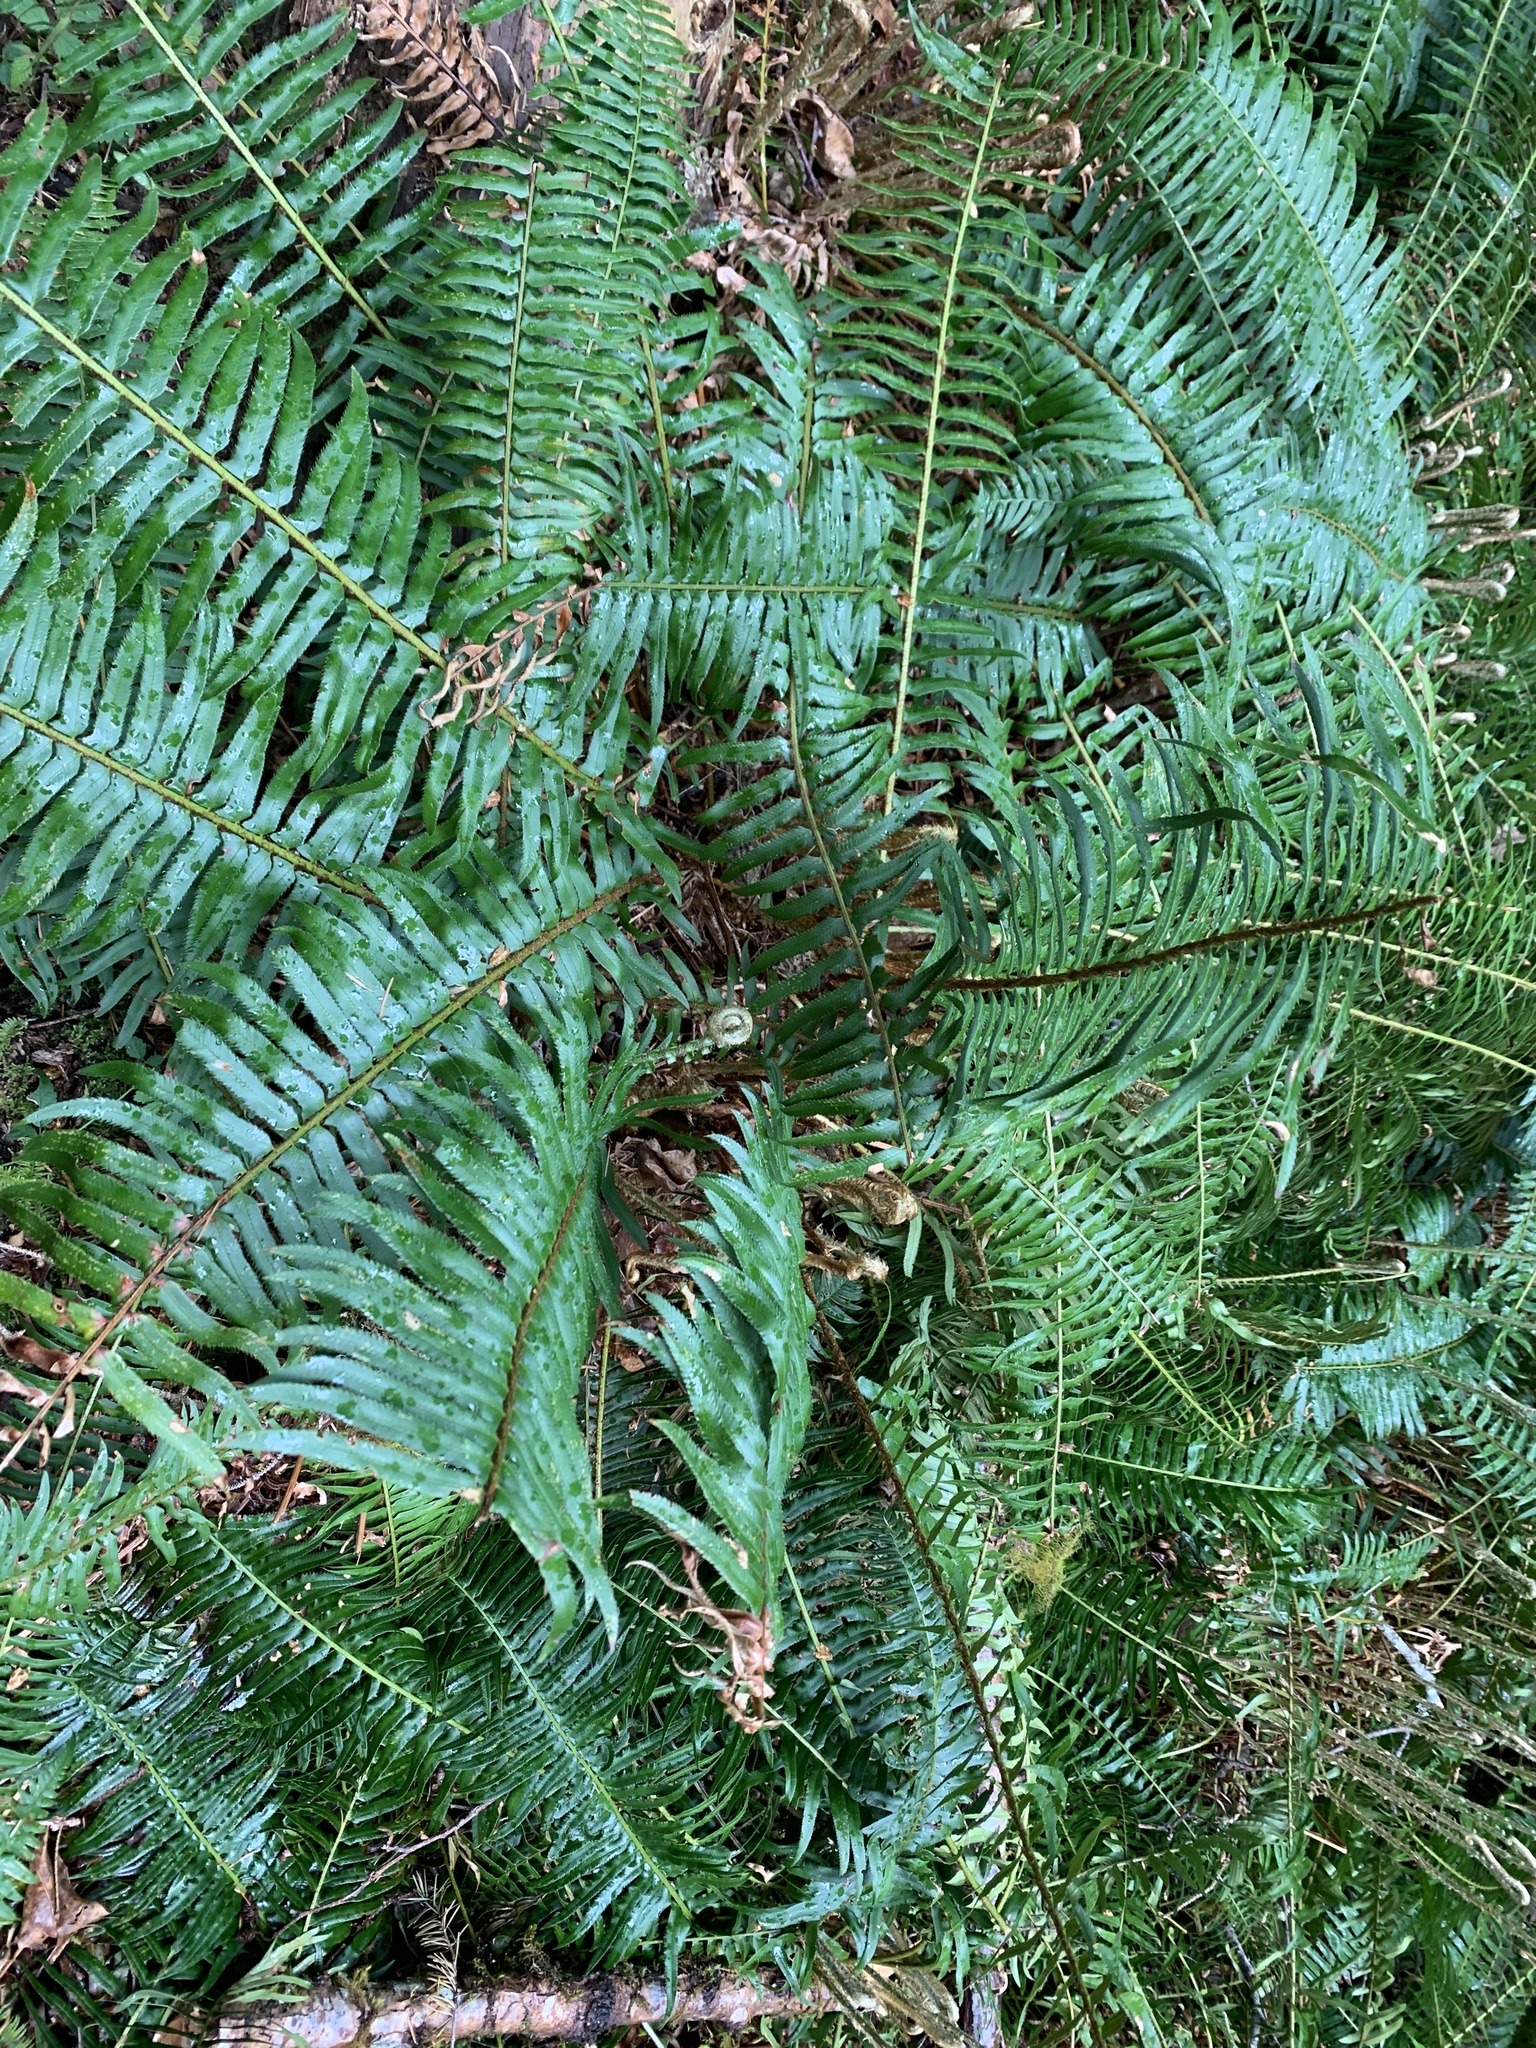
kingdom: Plantae
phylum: Tracheophyta
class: Polypodiopsida
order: Polypodiales
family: Dryopteridaceae
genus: Polystichum
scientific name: Polystichum munitum
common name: Western sword-fern
